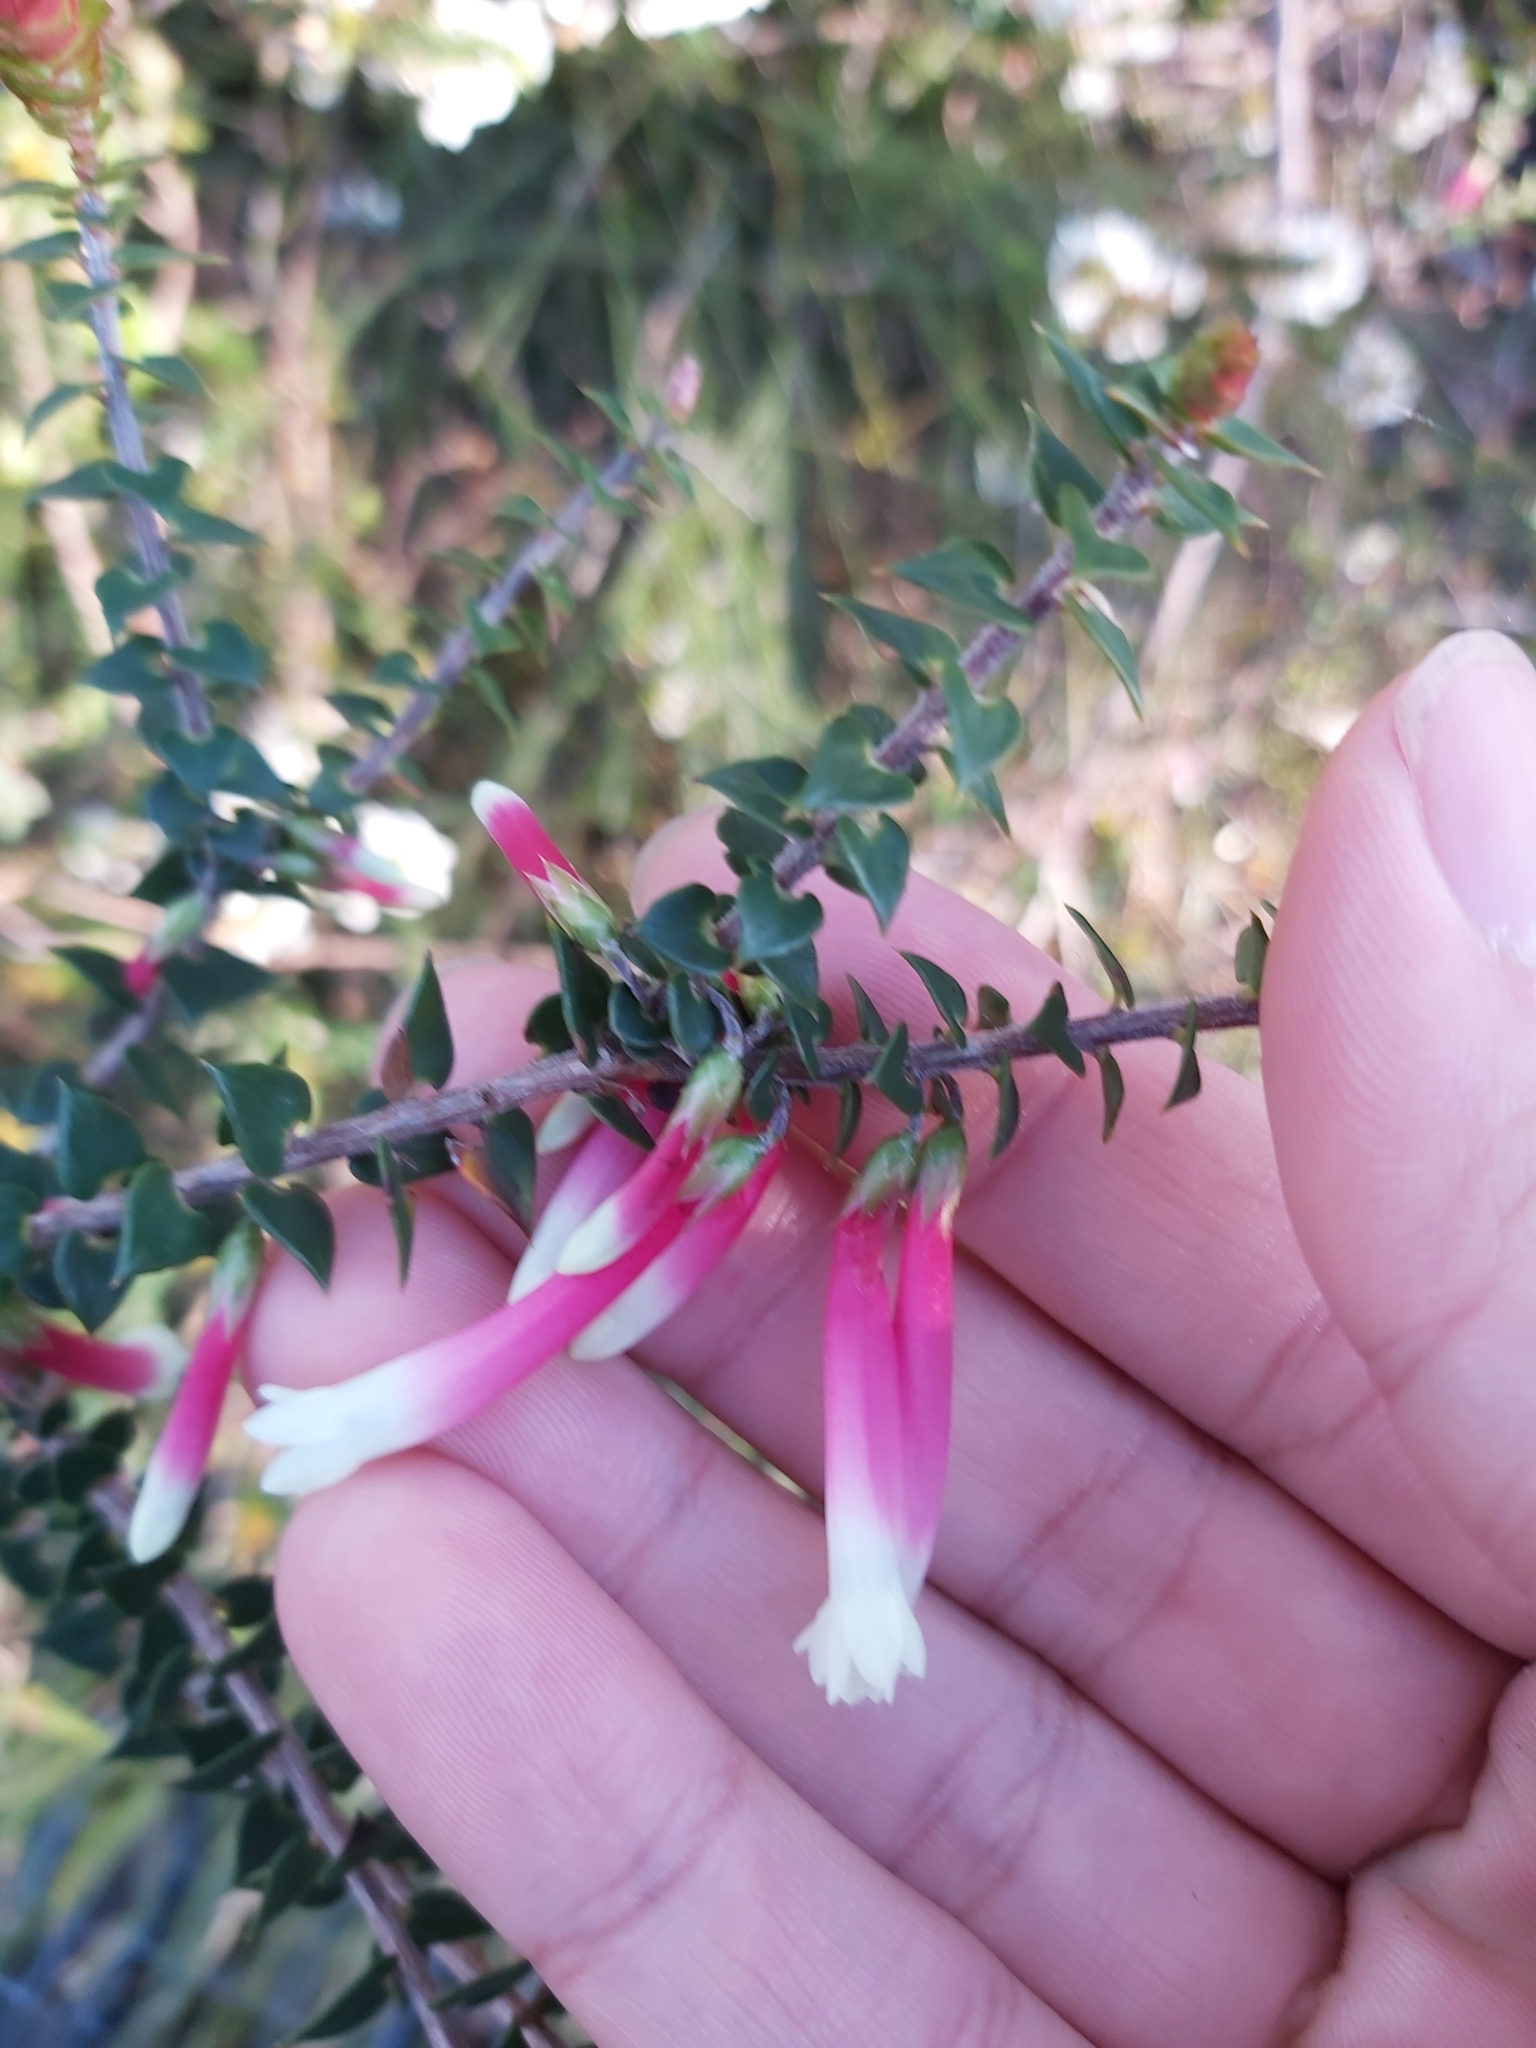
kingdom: Plantae
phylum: Tracheophyta
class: Magnoliopsida
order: Ericales
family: Ericaceae
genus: Epacris
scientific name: Epacris longiflora
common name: Fuchsia-heath
